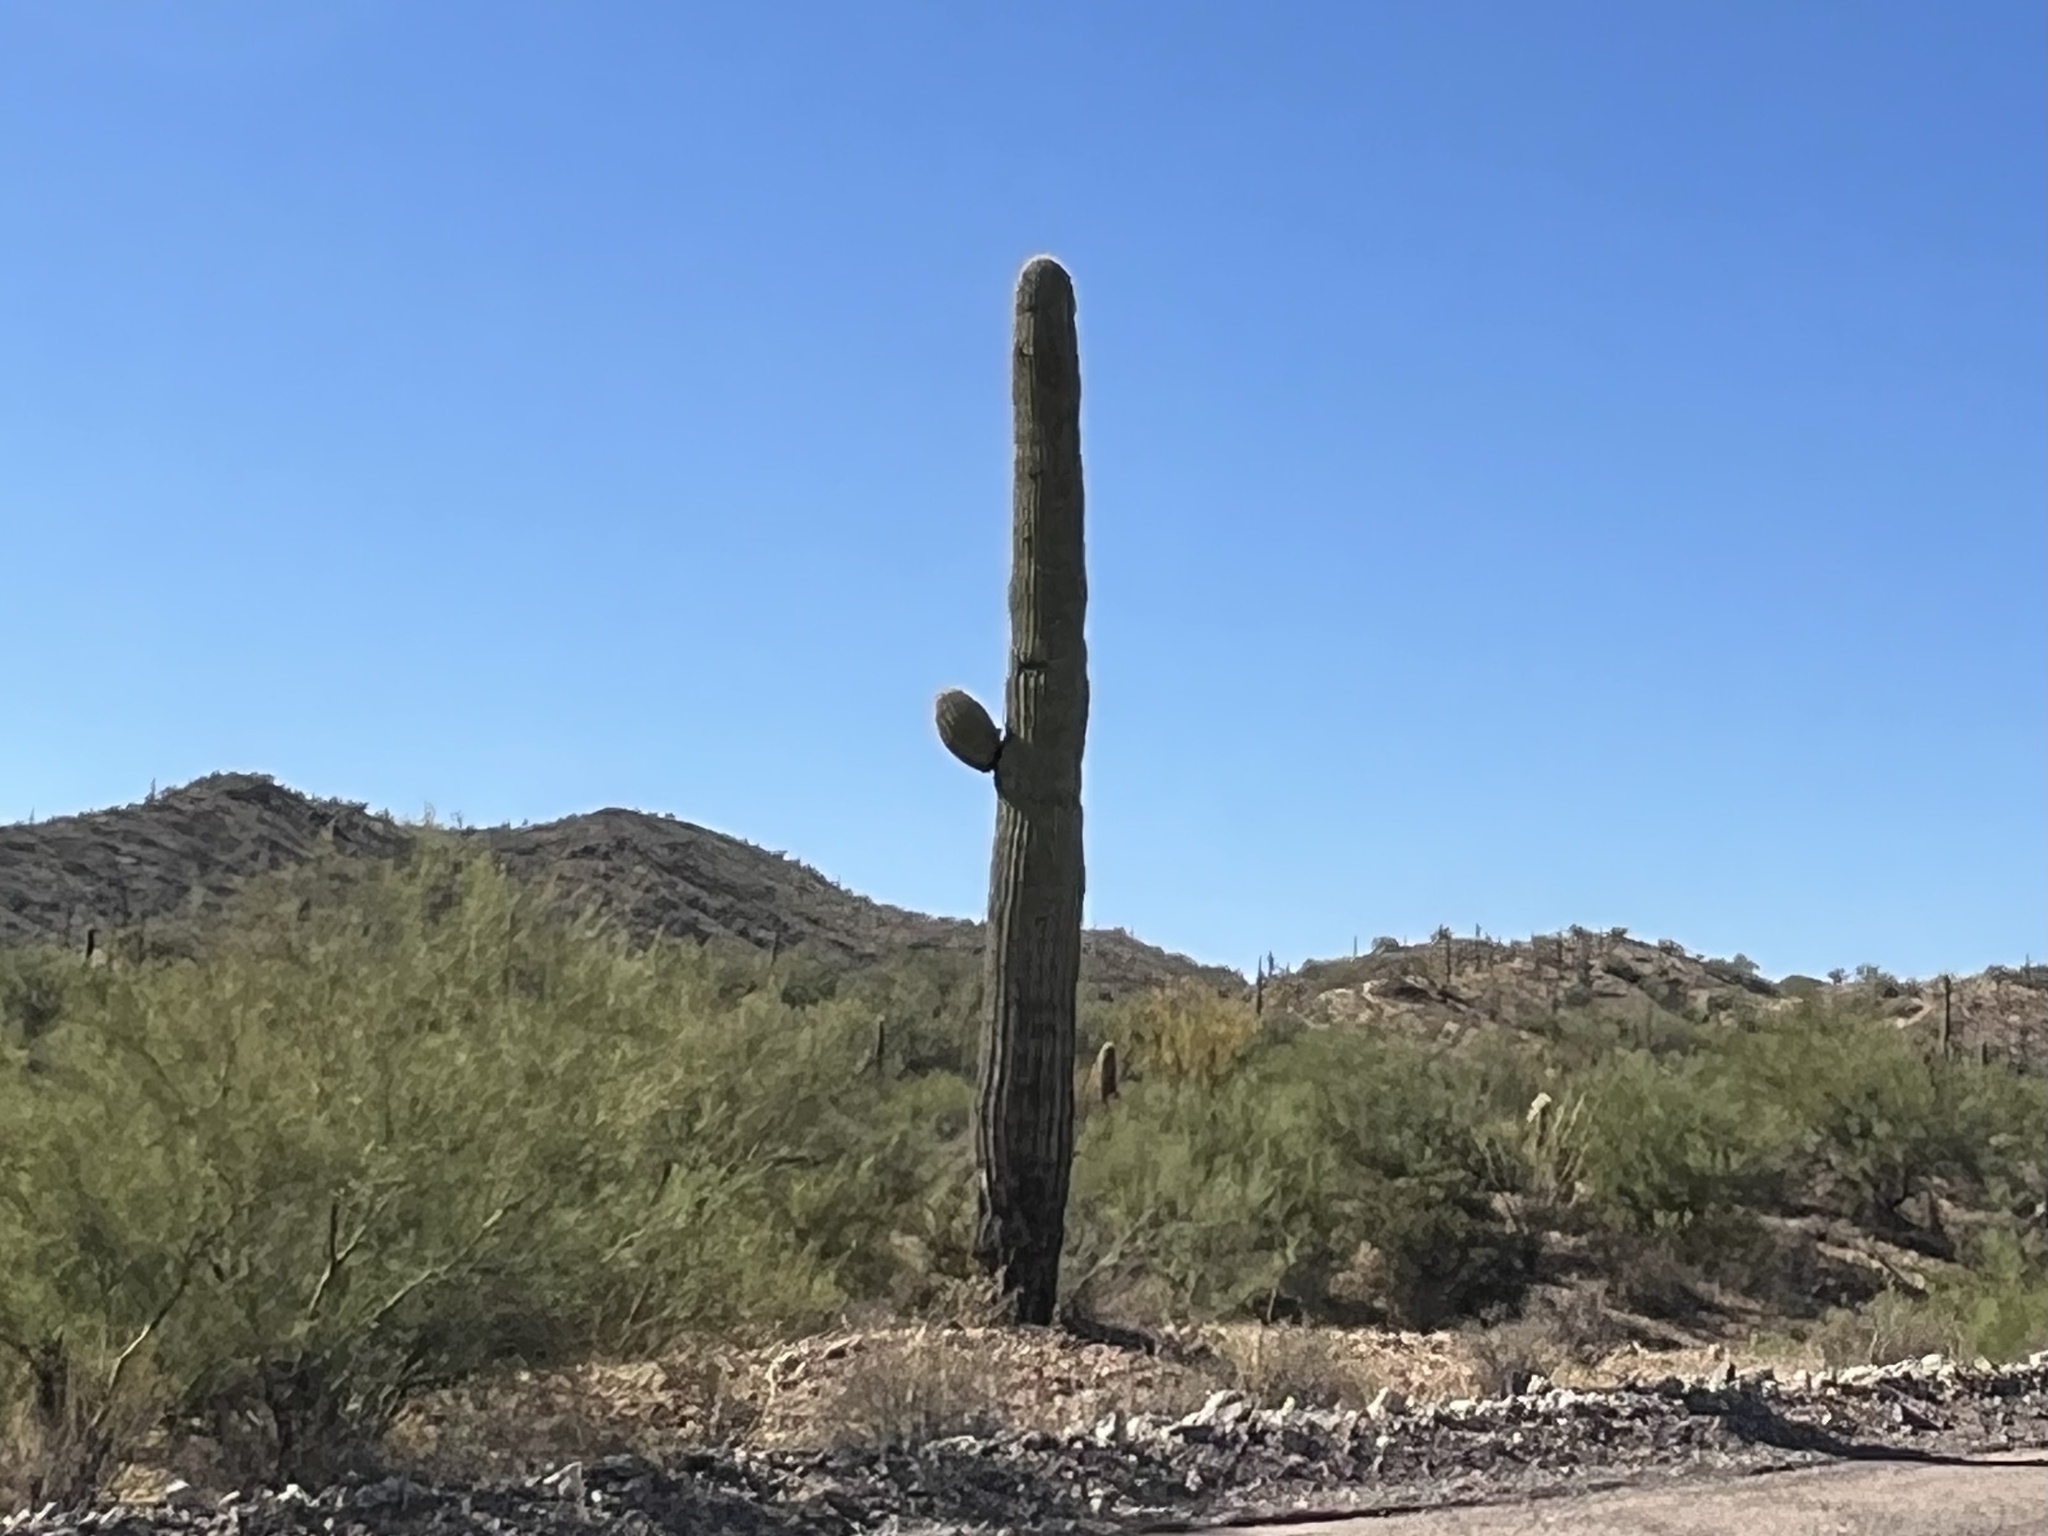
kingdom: Plantae
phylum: Tracheophyta
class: Magnoliopsida
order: Caryophyllales
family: Cactaceae
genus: Carnegiea
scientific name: Carnegiea gigantea
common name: Saguaro
